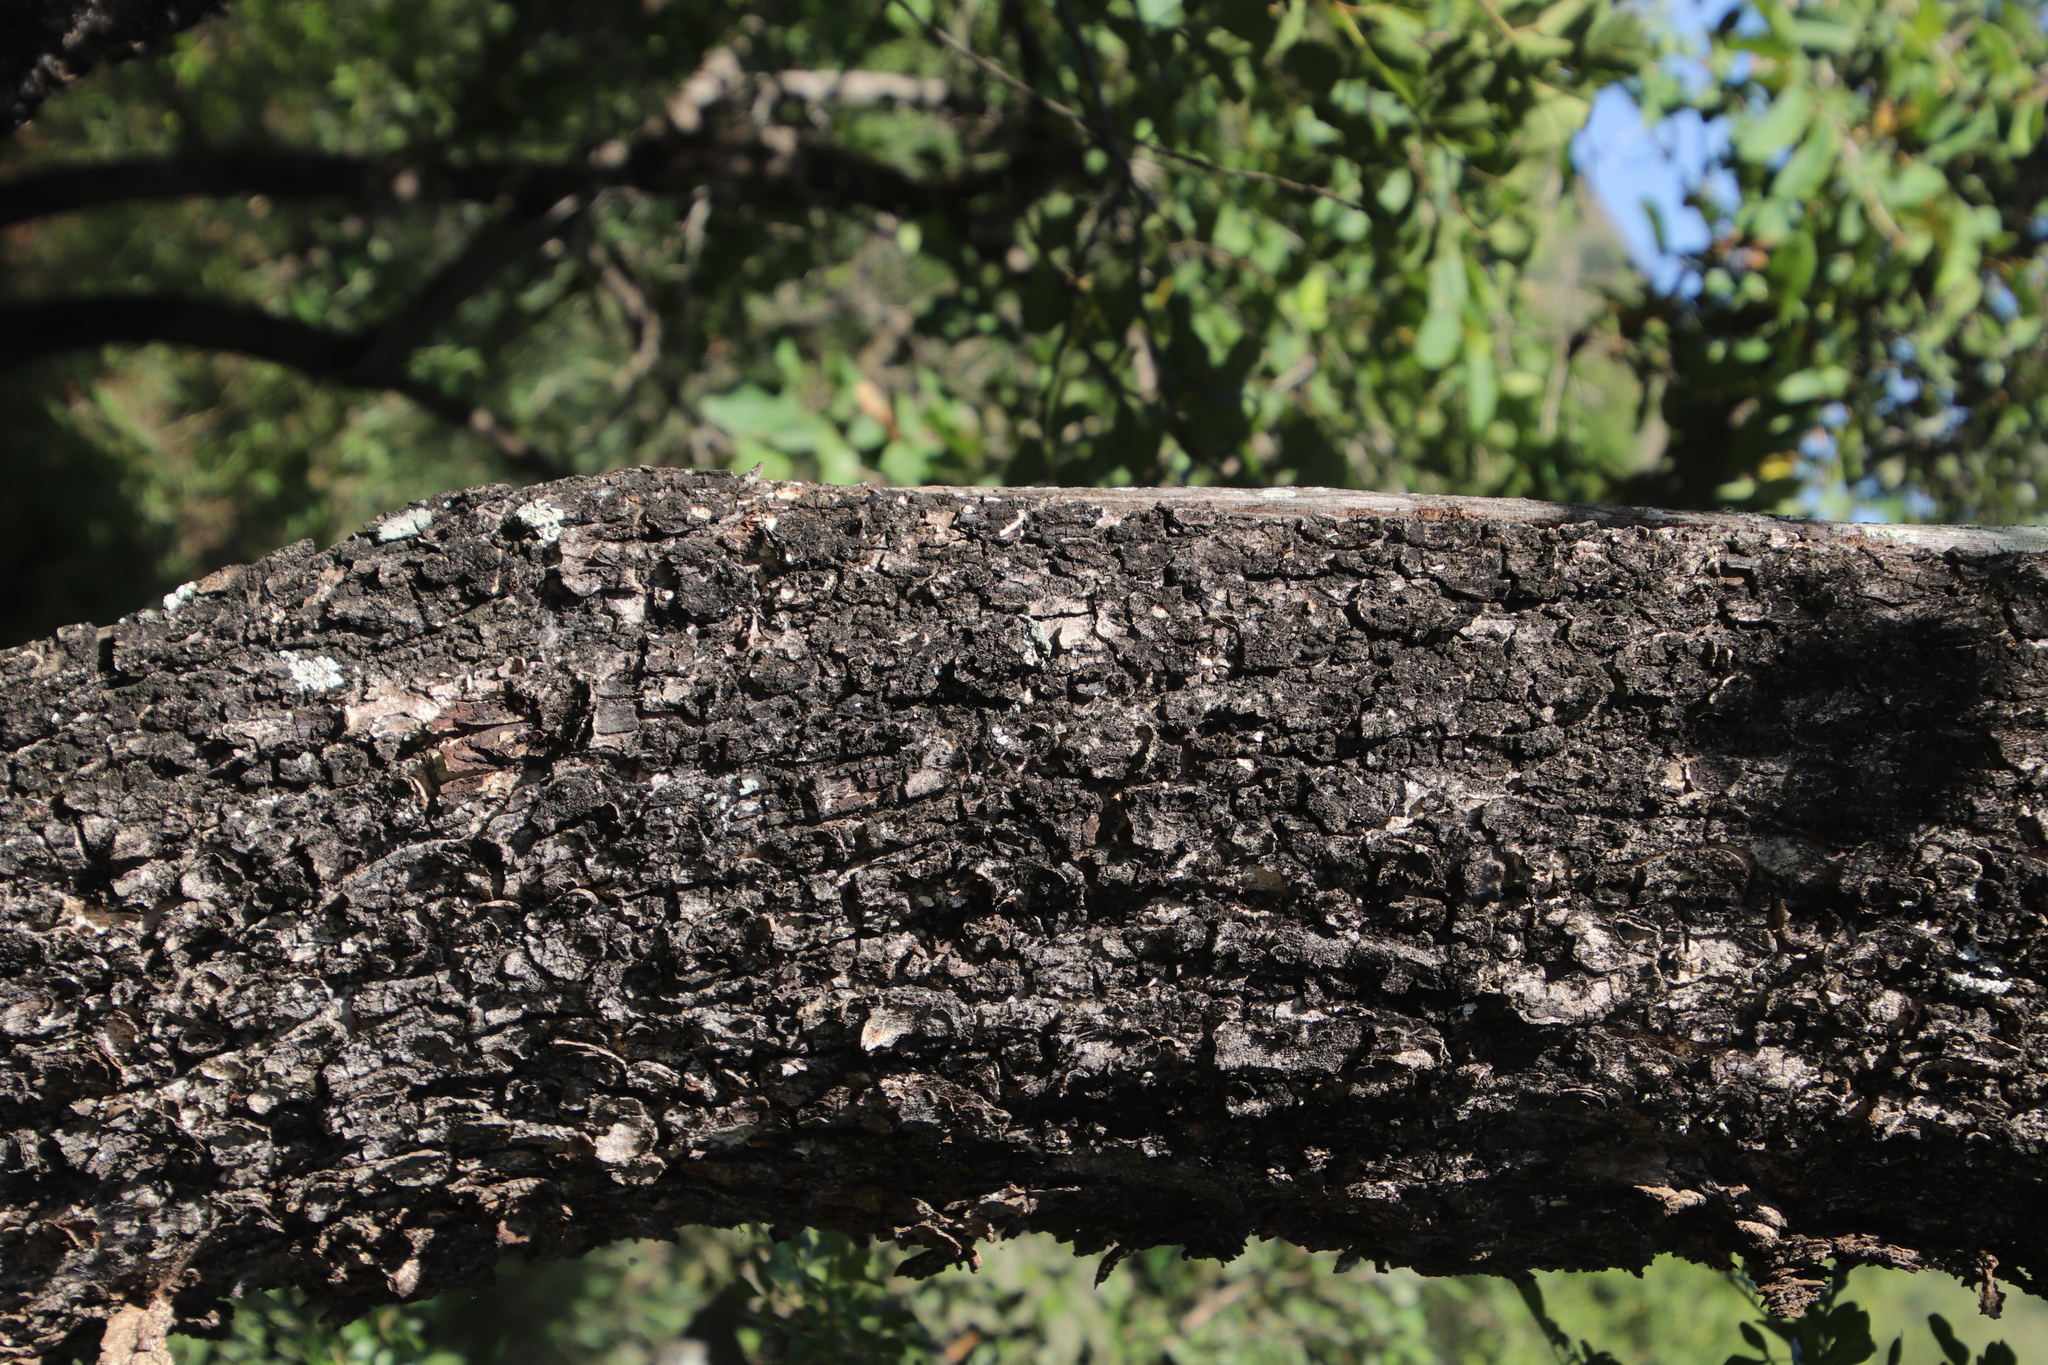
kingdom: Plantae
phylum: Tracheophyta
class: Magnoliopsida
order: Malvales
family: Malvaceae
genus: Dombeya
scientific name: Dombeya rotundifolia
